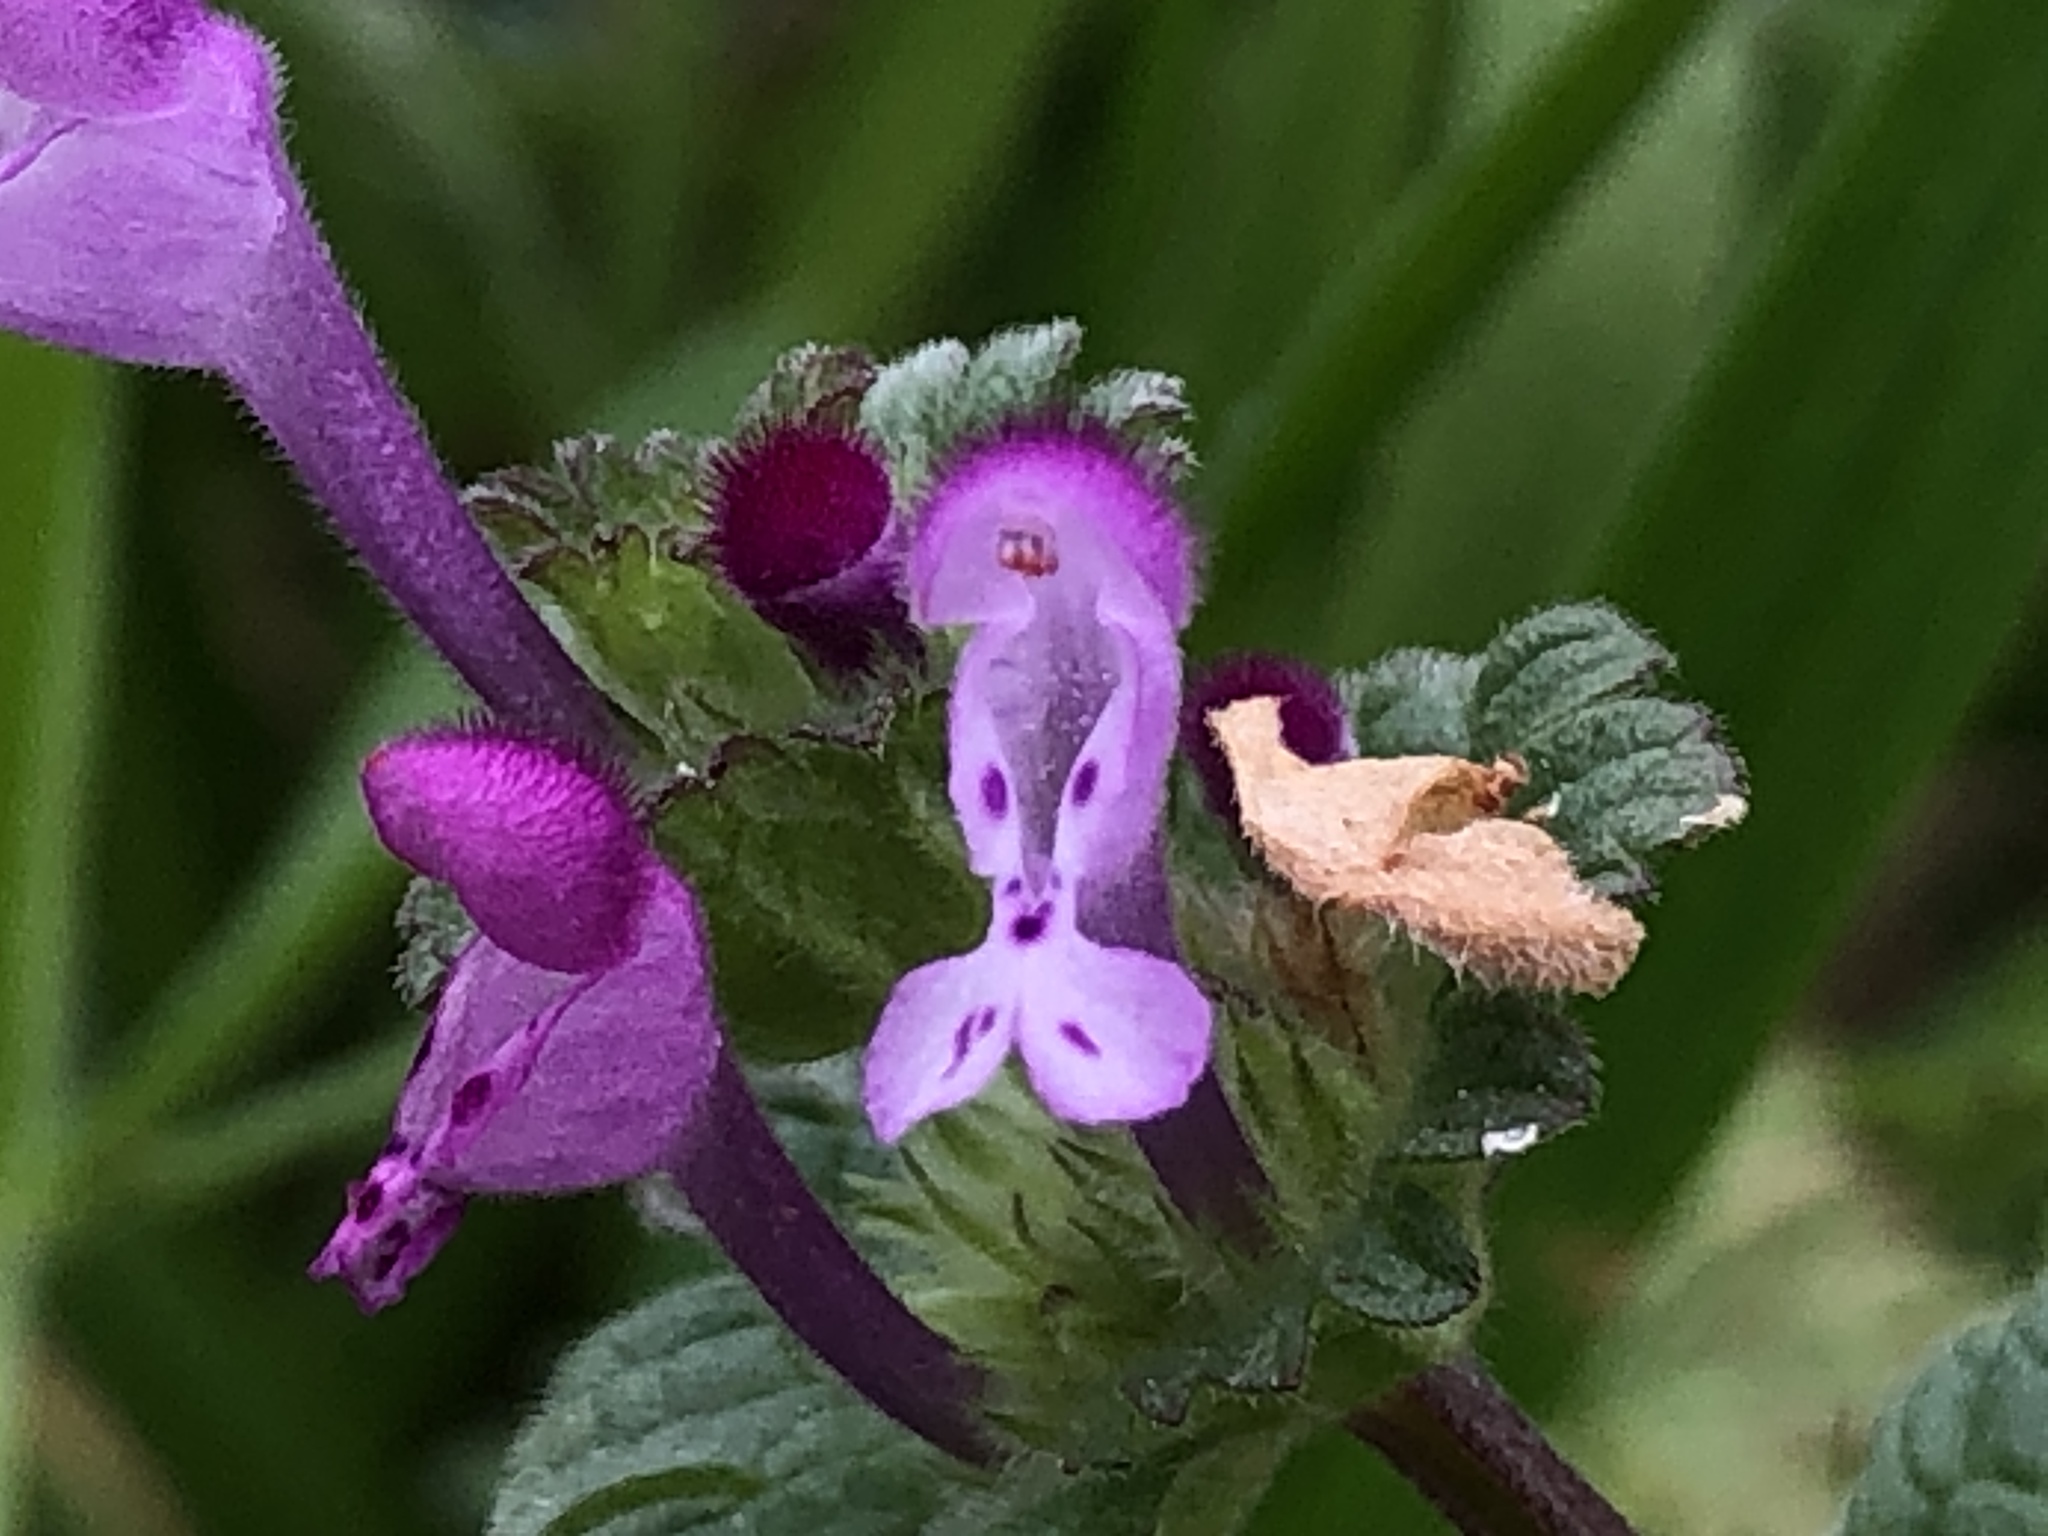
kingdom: Plantae
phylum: Tracheophyta
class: Magnoliopsida
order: Lamiales
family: Lamiaceae
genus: Lamium
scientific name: Lamium amplexicaule
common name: Henbit dead-nettle
